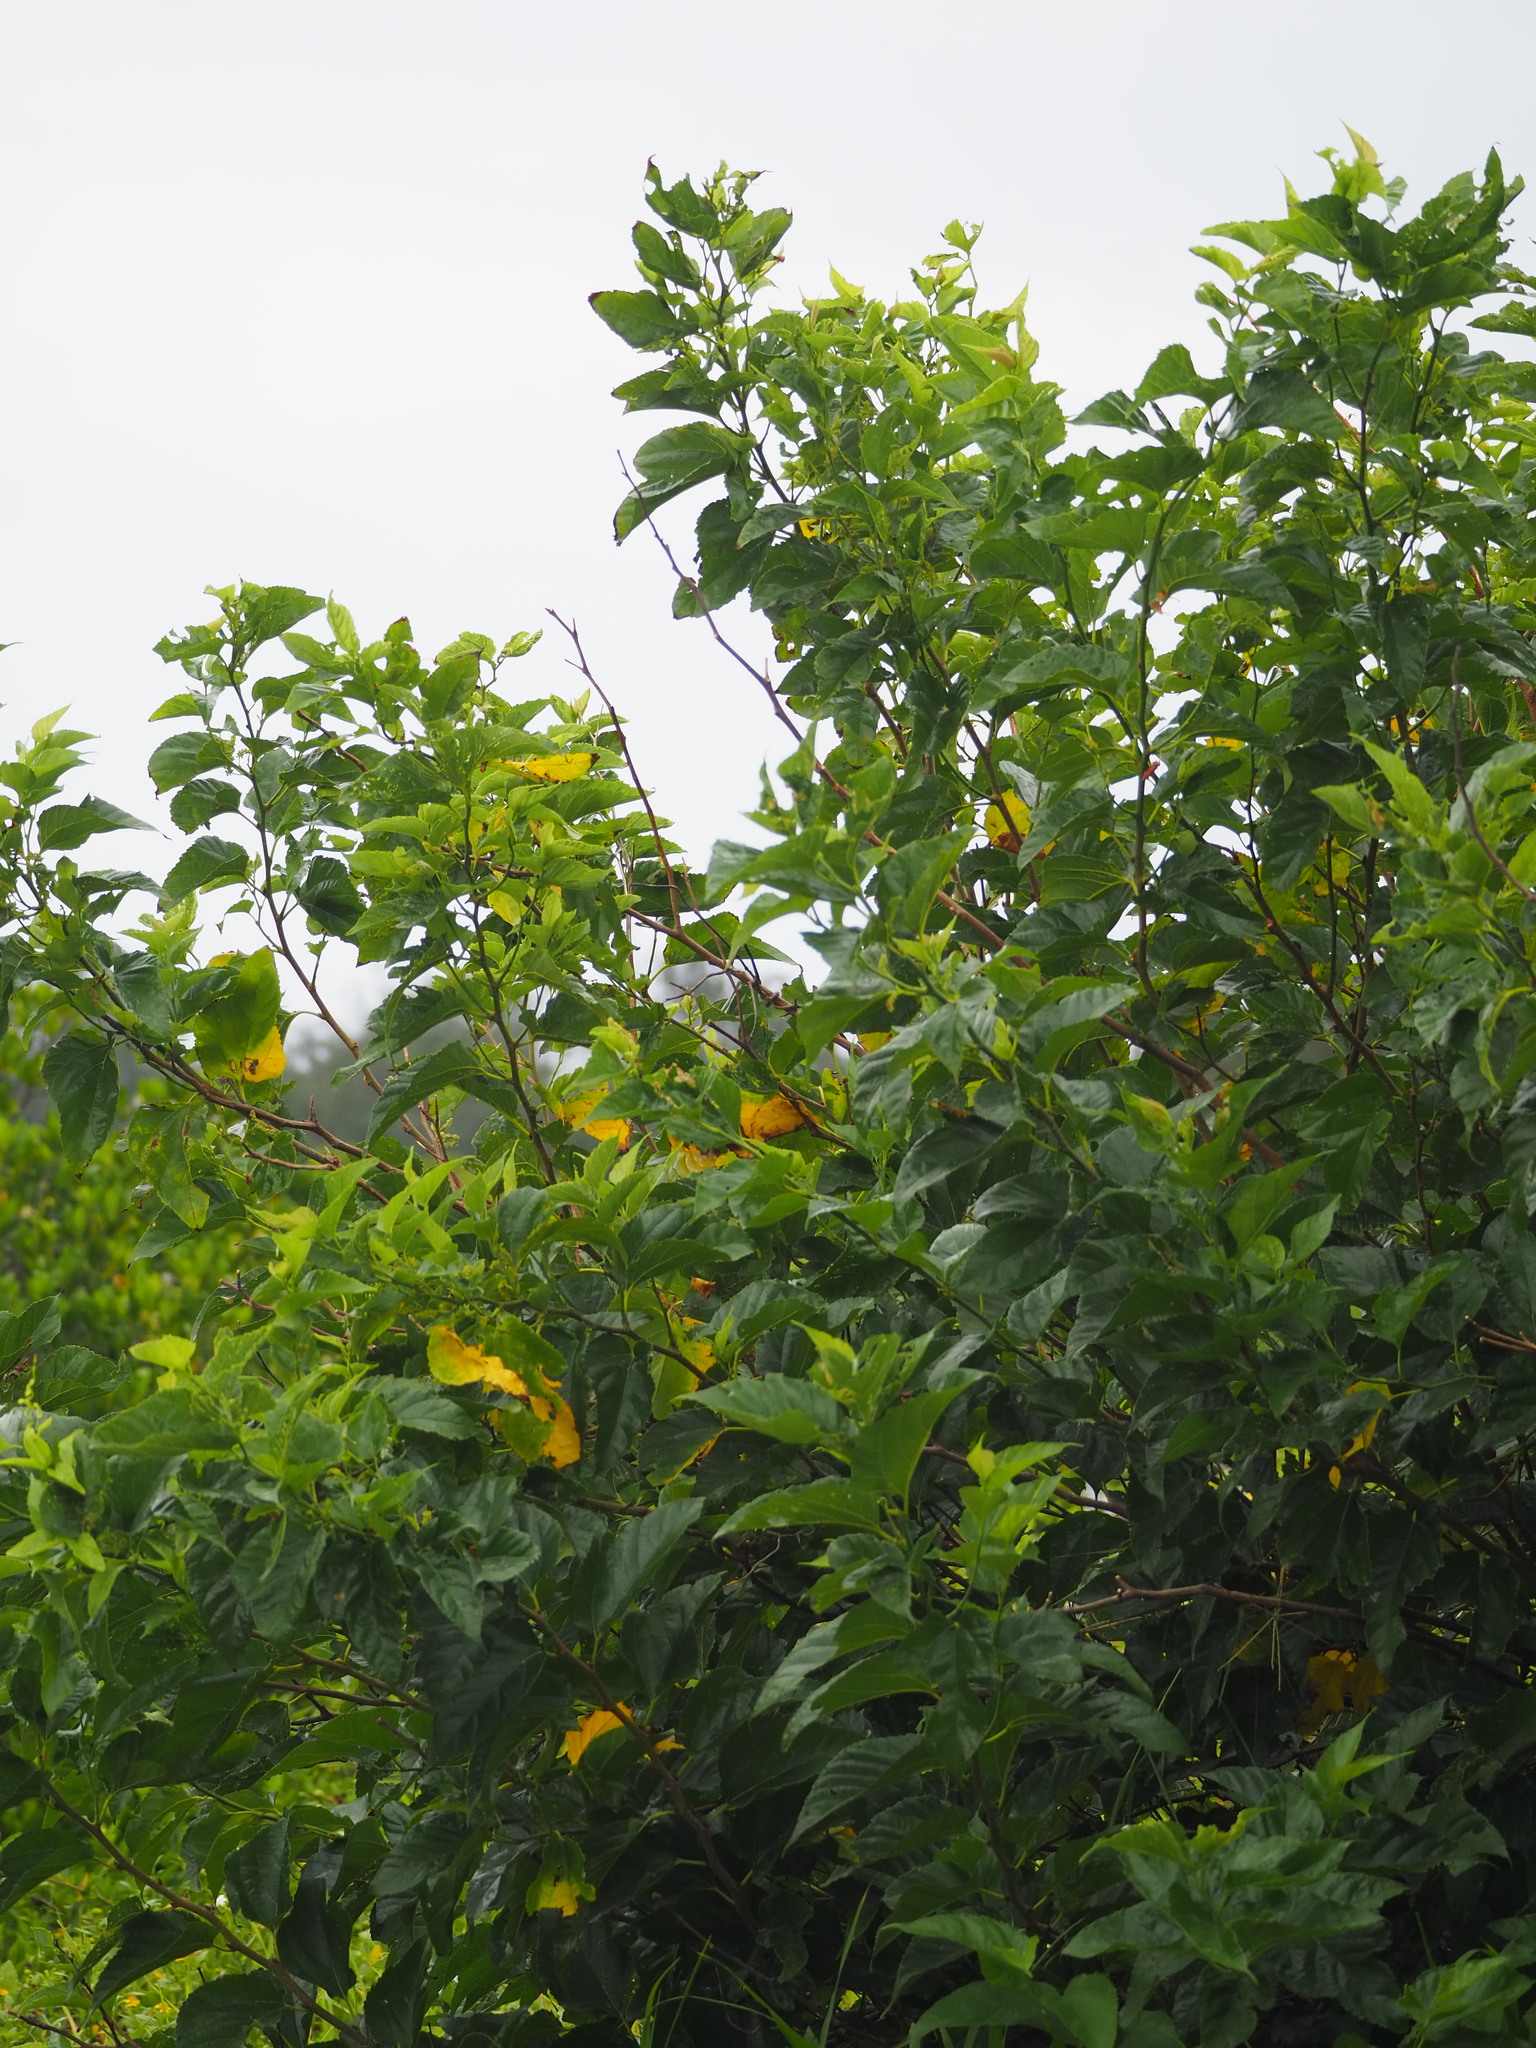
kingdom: Plantae
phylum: Tracheophyta
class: Magnoliopsida
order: Rosales
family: Moraceae
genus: Morus
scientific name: Morus indica
